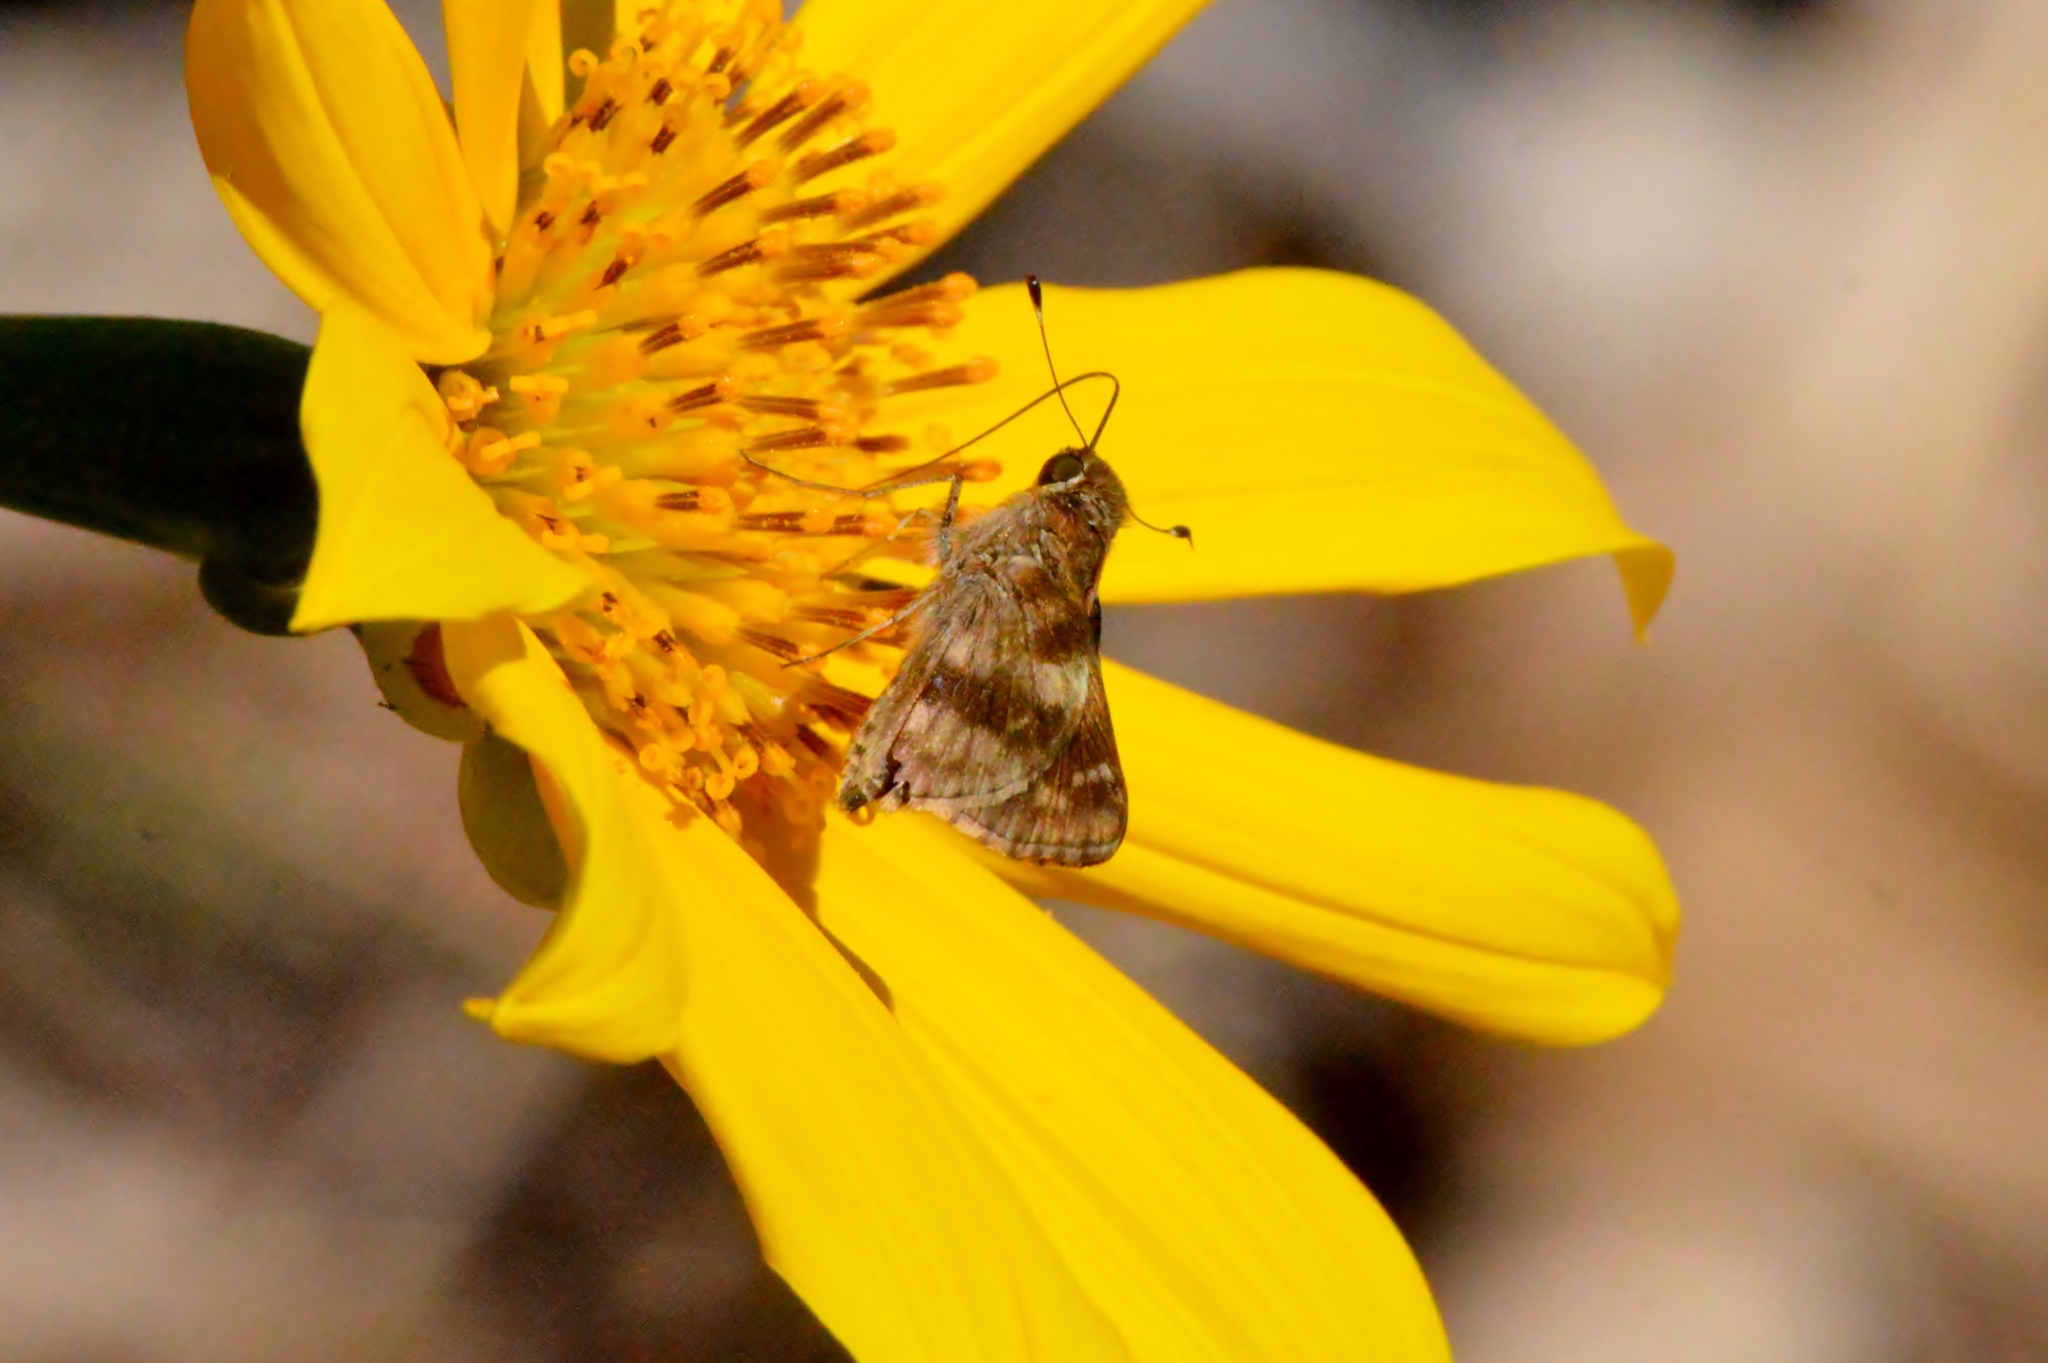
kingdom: Animalia
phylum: Arthropoda
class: Insecta
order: Lepidoptera
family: Hesperiidae
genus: Pompeius
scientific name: Pompeius pompeius
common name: Pompeius skipper
